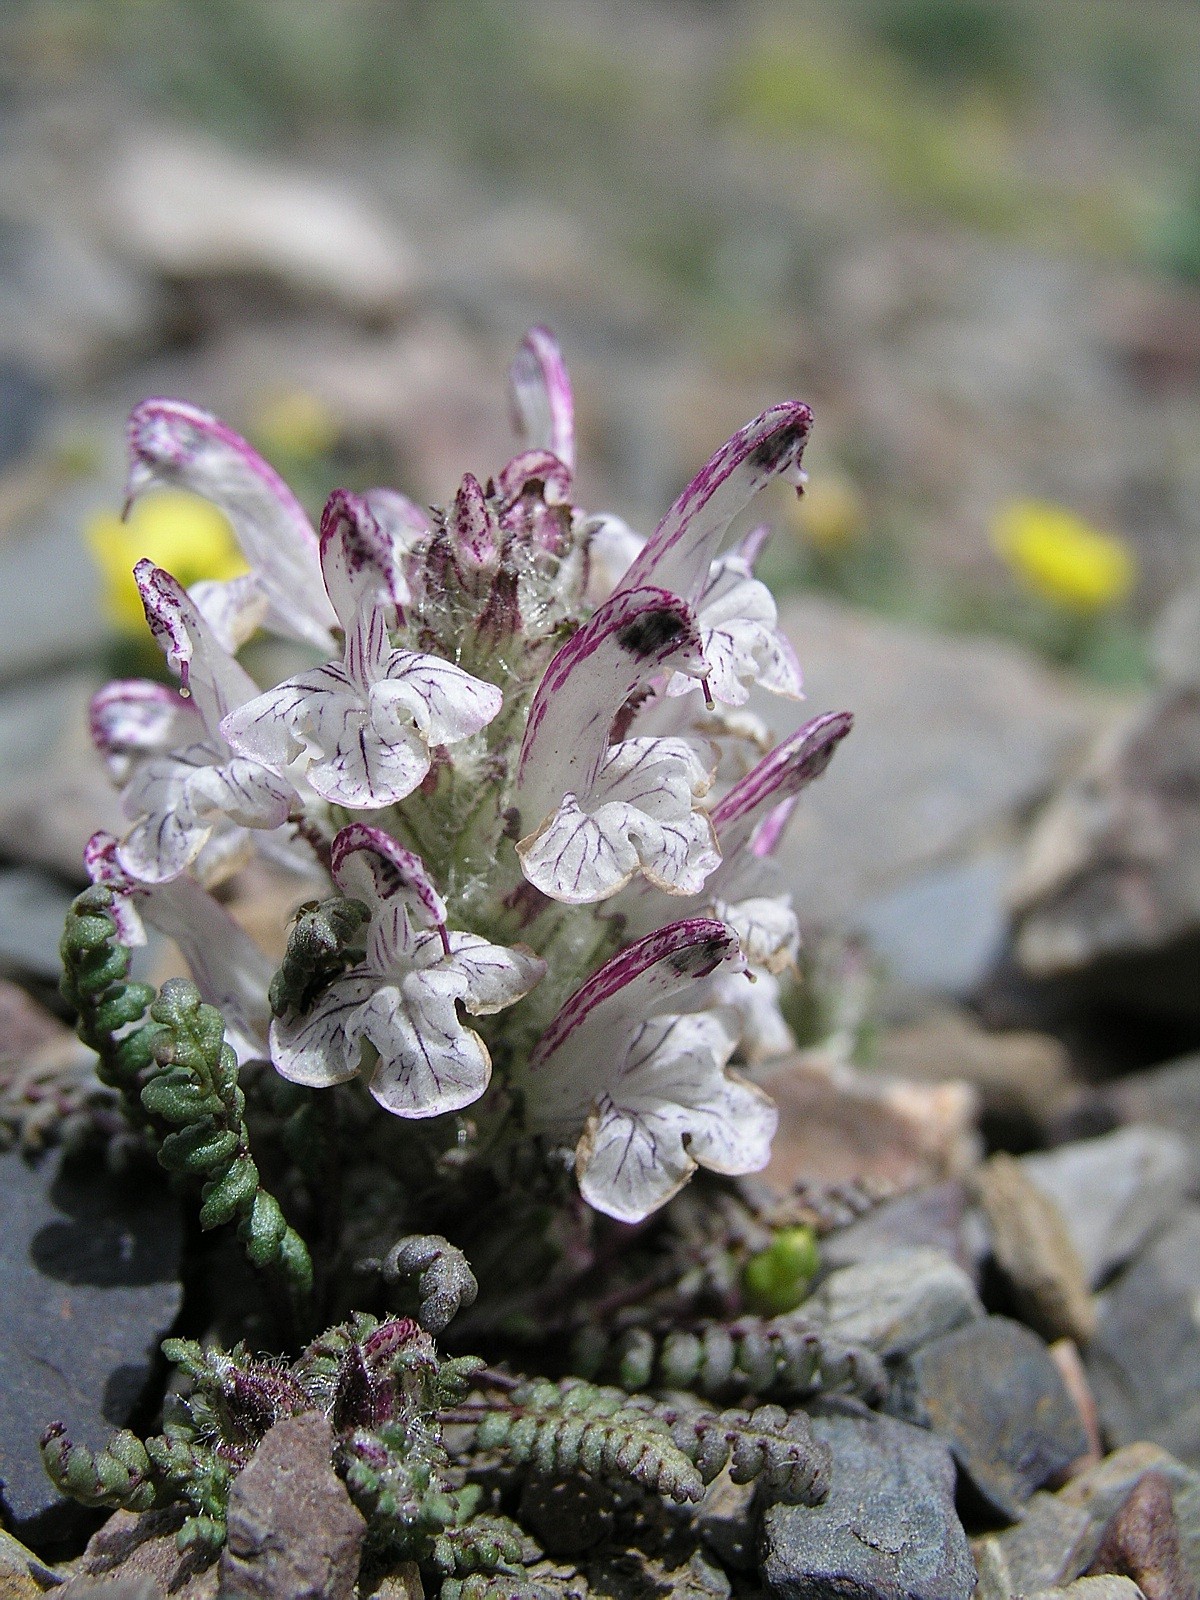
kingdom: Plantae
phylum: Tracheophyta
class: Magnoliopsida
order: Lamiales
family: Orobanchaceae
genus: Pedicularis
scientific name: Pedicularis cheilanthifolia
